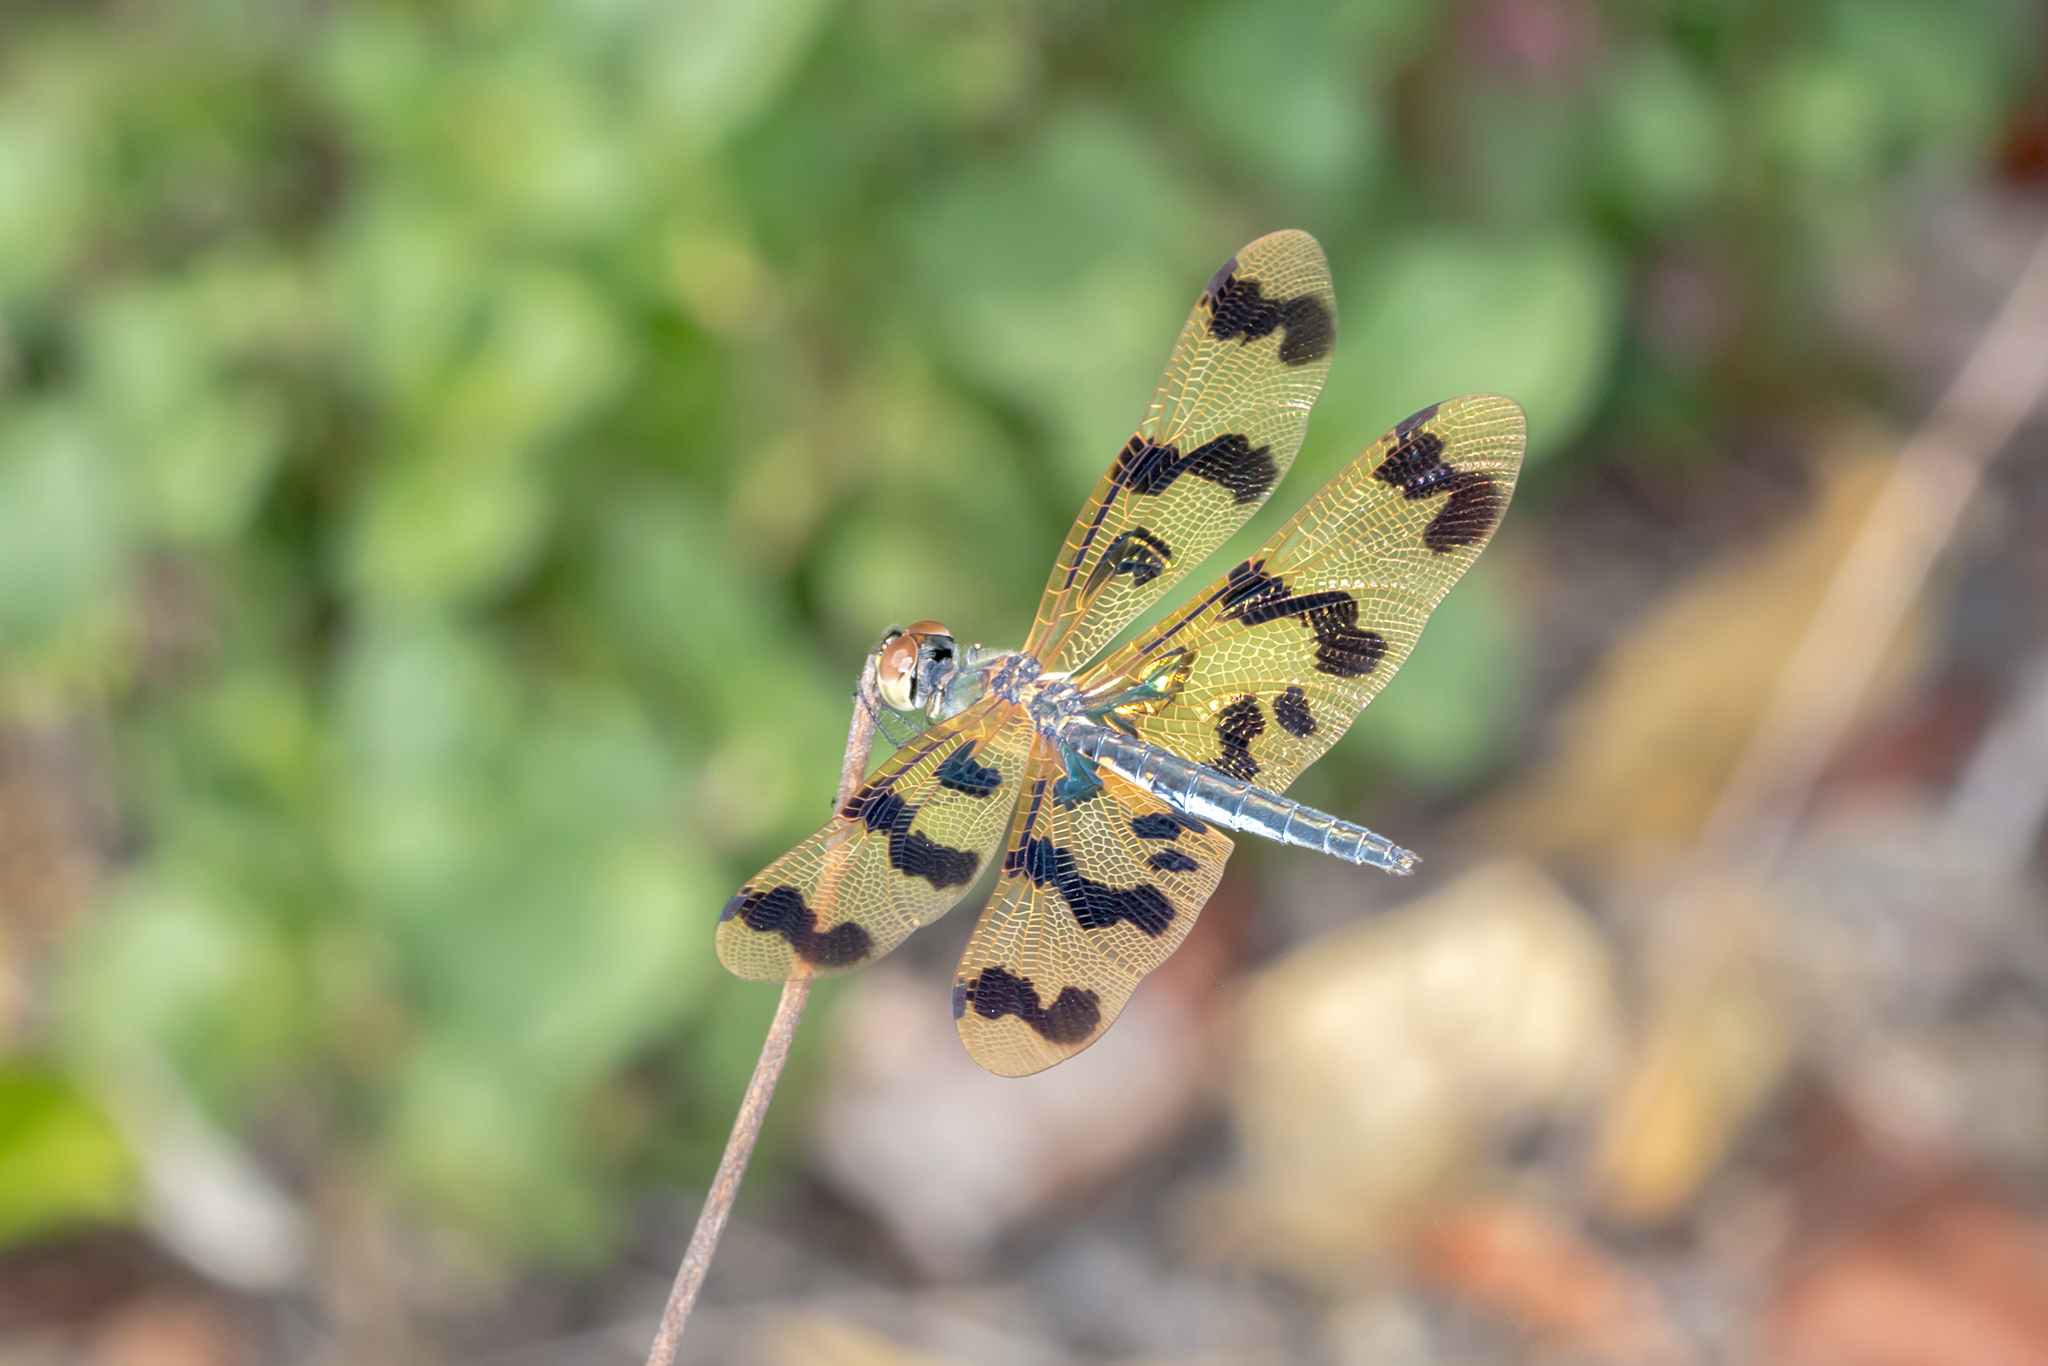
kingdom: Animalia
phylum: Arthropoda
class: Insecta
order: Odonata
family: Libellulidae
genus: Rhyothemis
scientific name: Rhyothemis graphiptera
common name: Graphic flutterer
